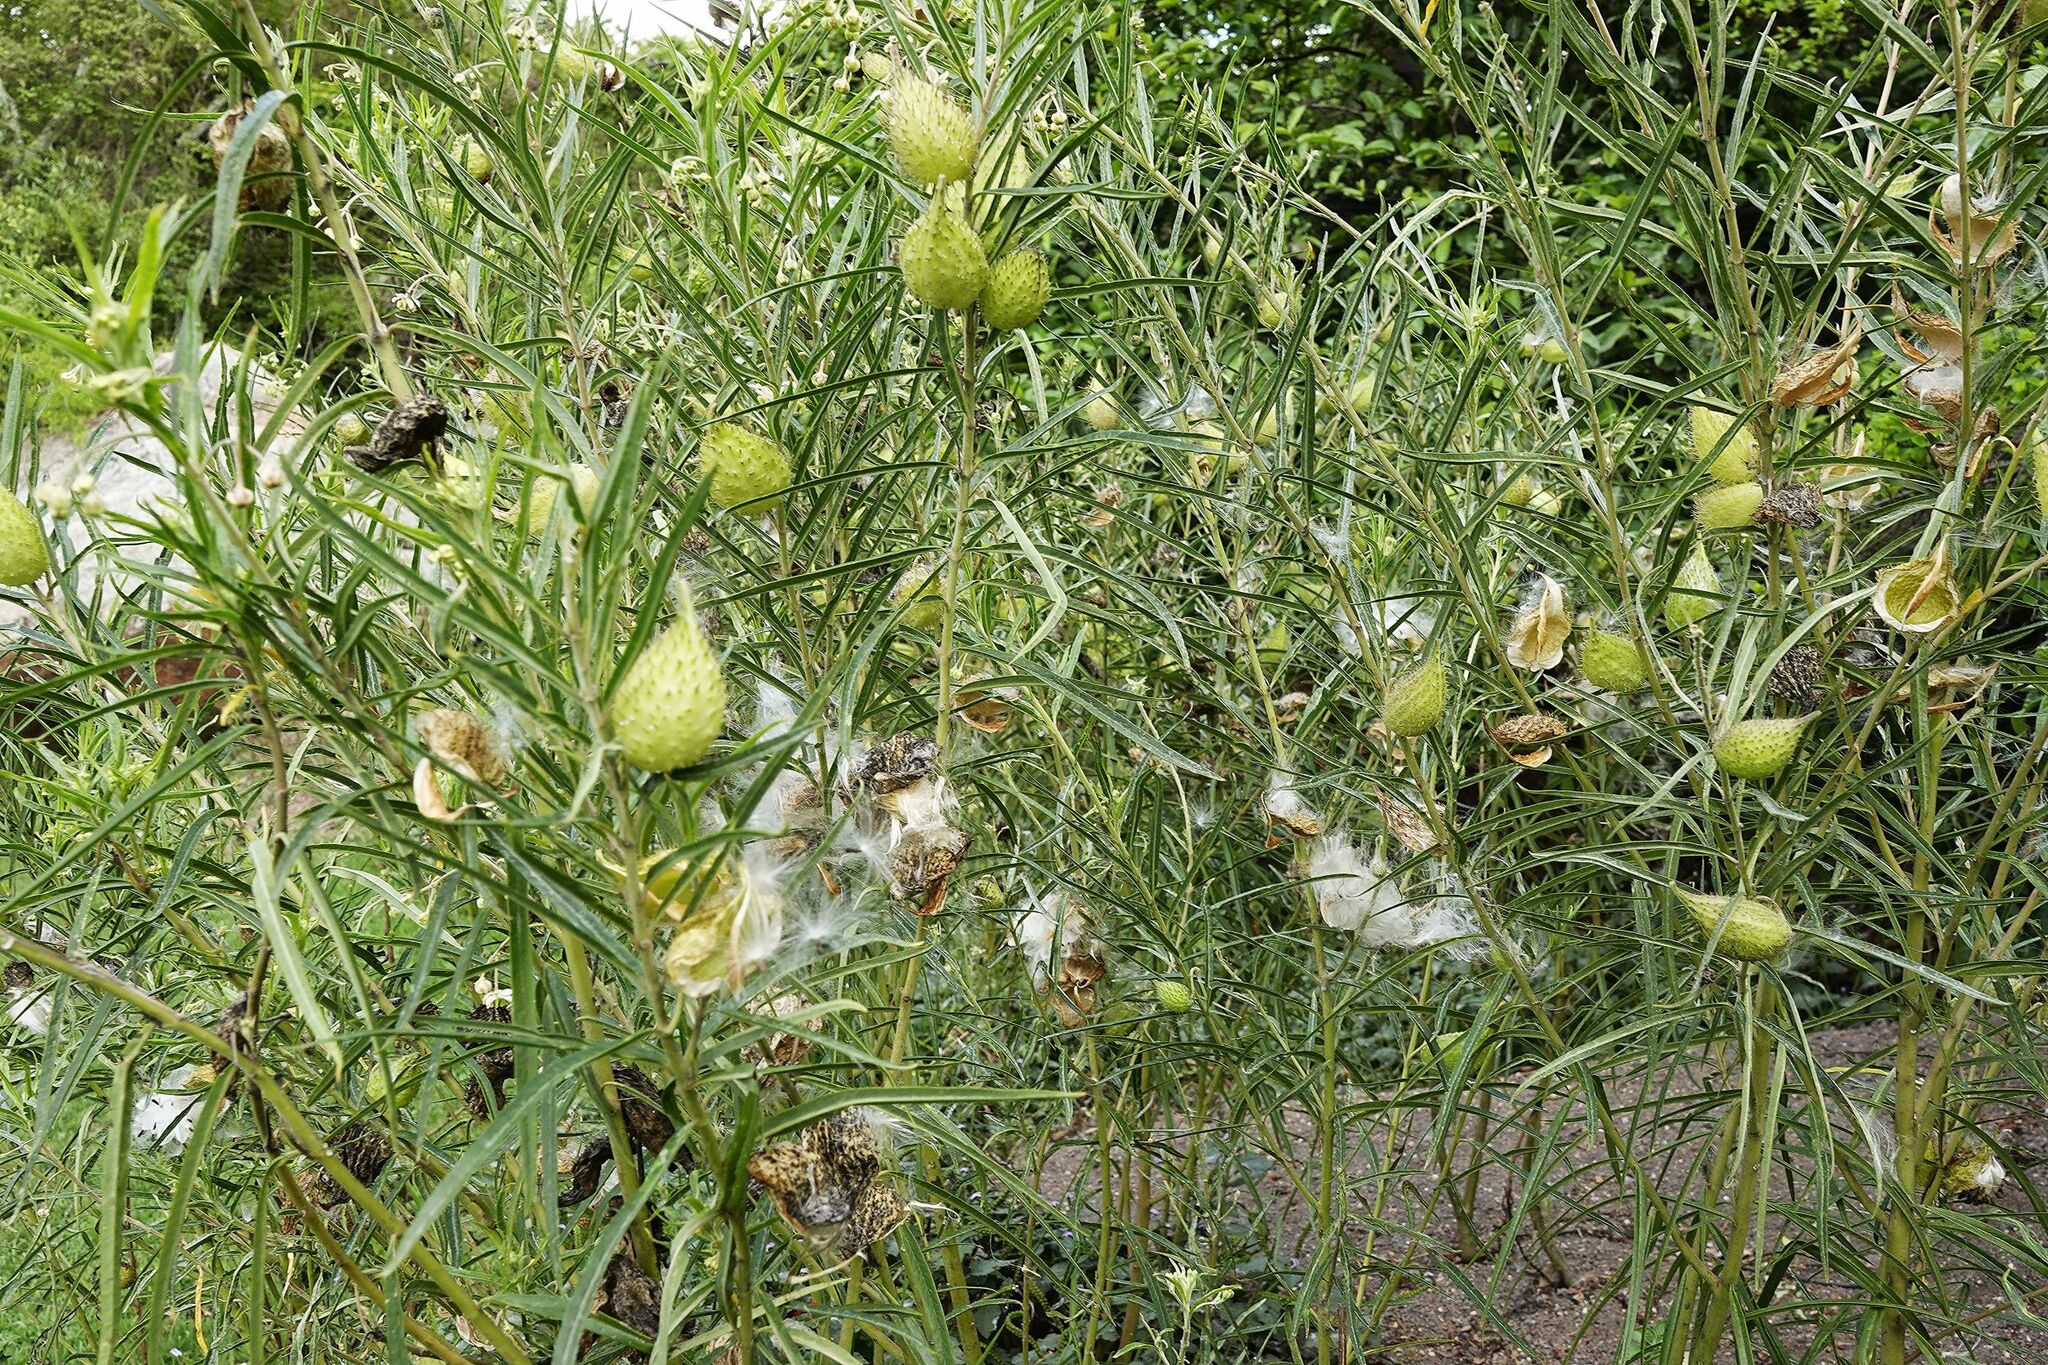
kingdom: Plantae
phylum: Tracheophyta
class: Magnoliopsida
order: Gentianales
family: Apocynaceae
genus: Gomphocarpus
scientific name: Gomphocarpus fruticosus
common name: Milkweed
